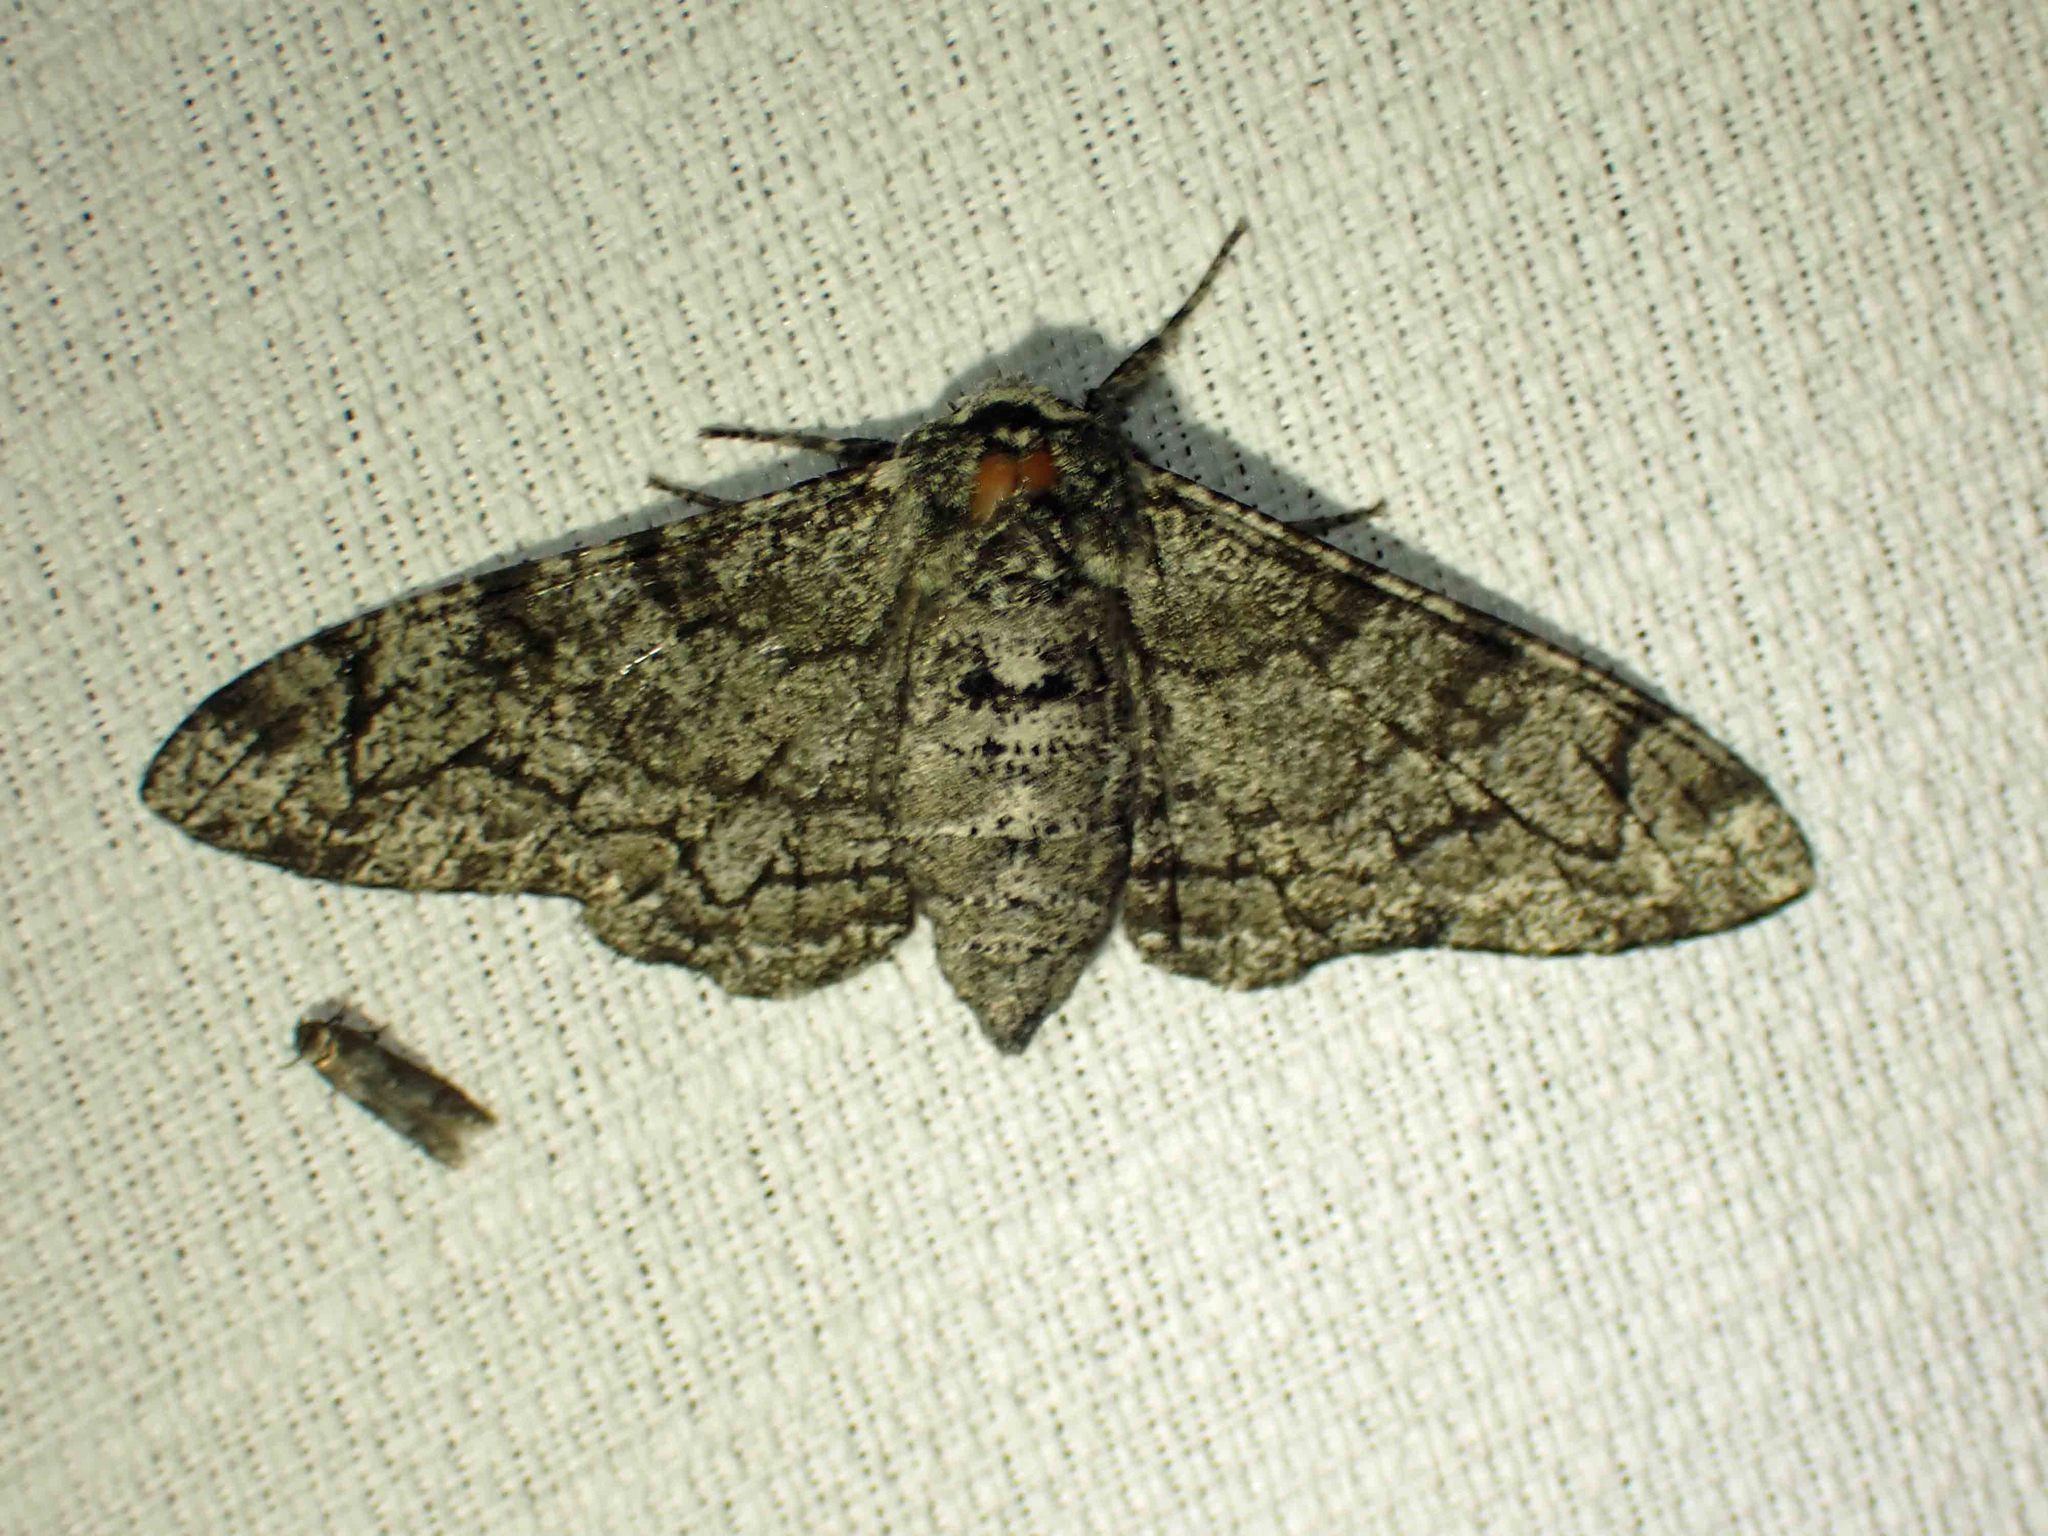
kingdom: Animalia
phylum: Arthropoda
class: Insecta
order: Lepidoptera
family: Geometridae
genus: Biston
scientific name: Biston betularia
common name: Peppered moth
